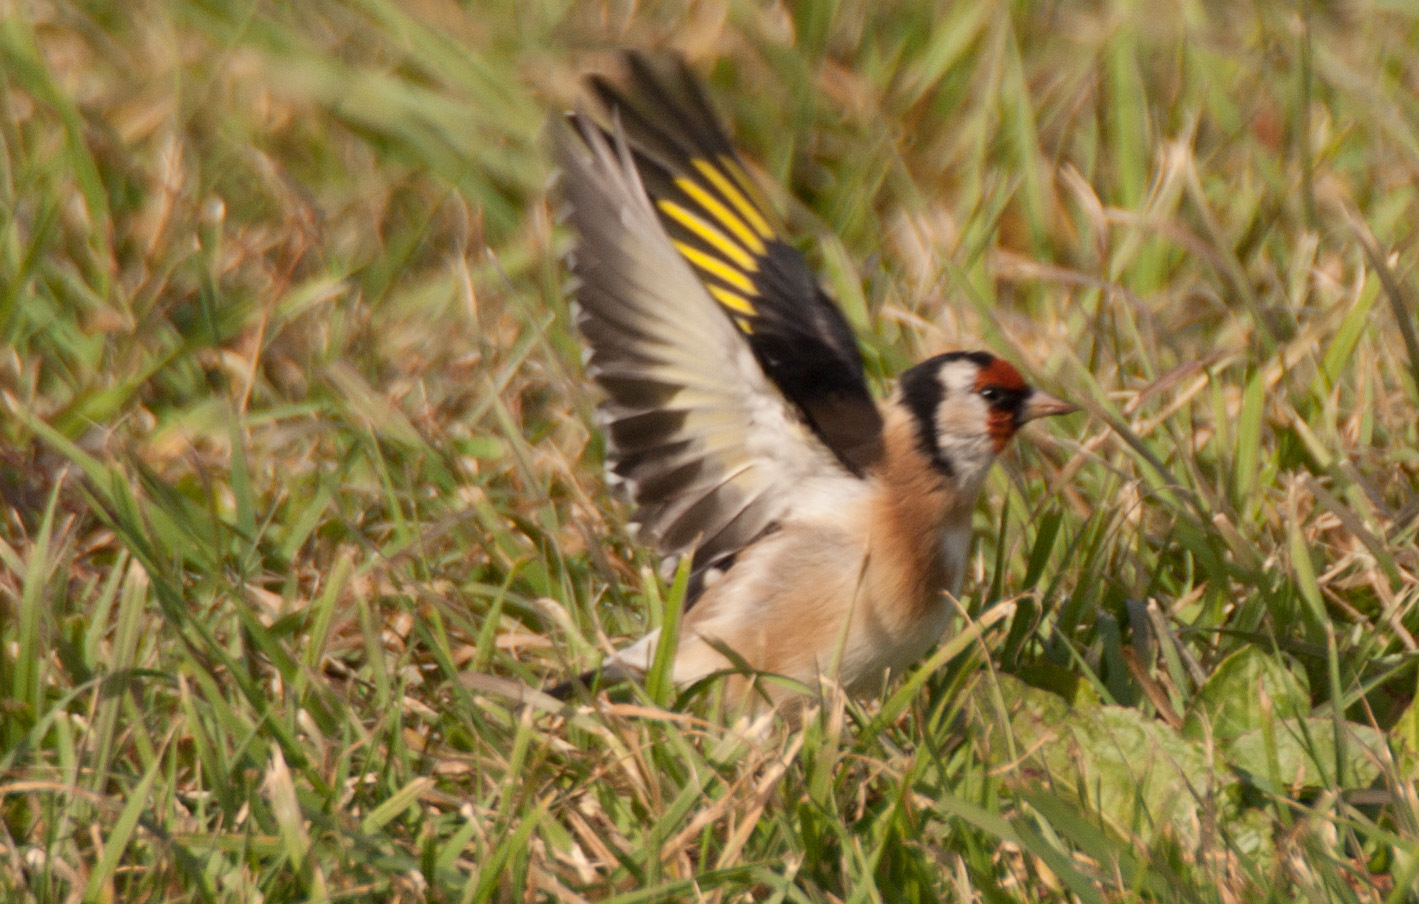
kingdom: Animalia
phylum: Chordata
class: Aves
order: Passeriformes
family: Fringillidae
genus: Carduelis
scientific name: Carduelis carduelis
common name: European goldfinch
